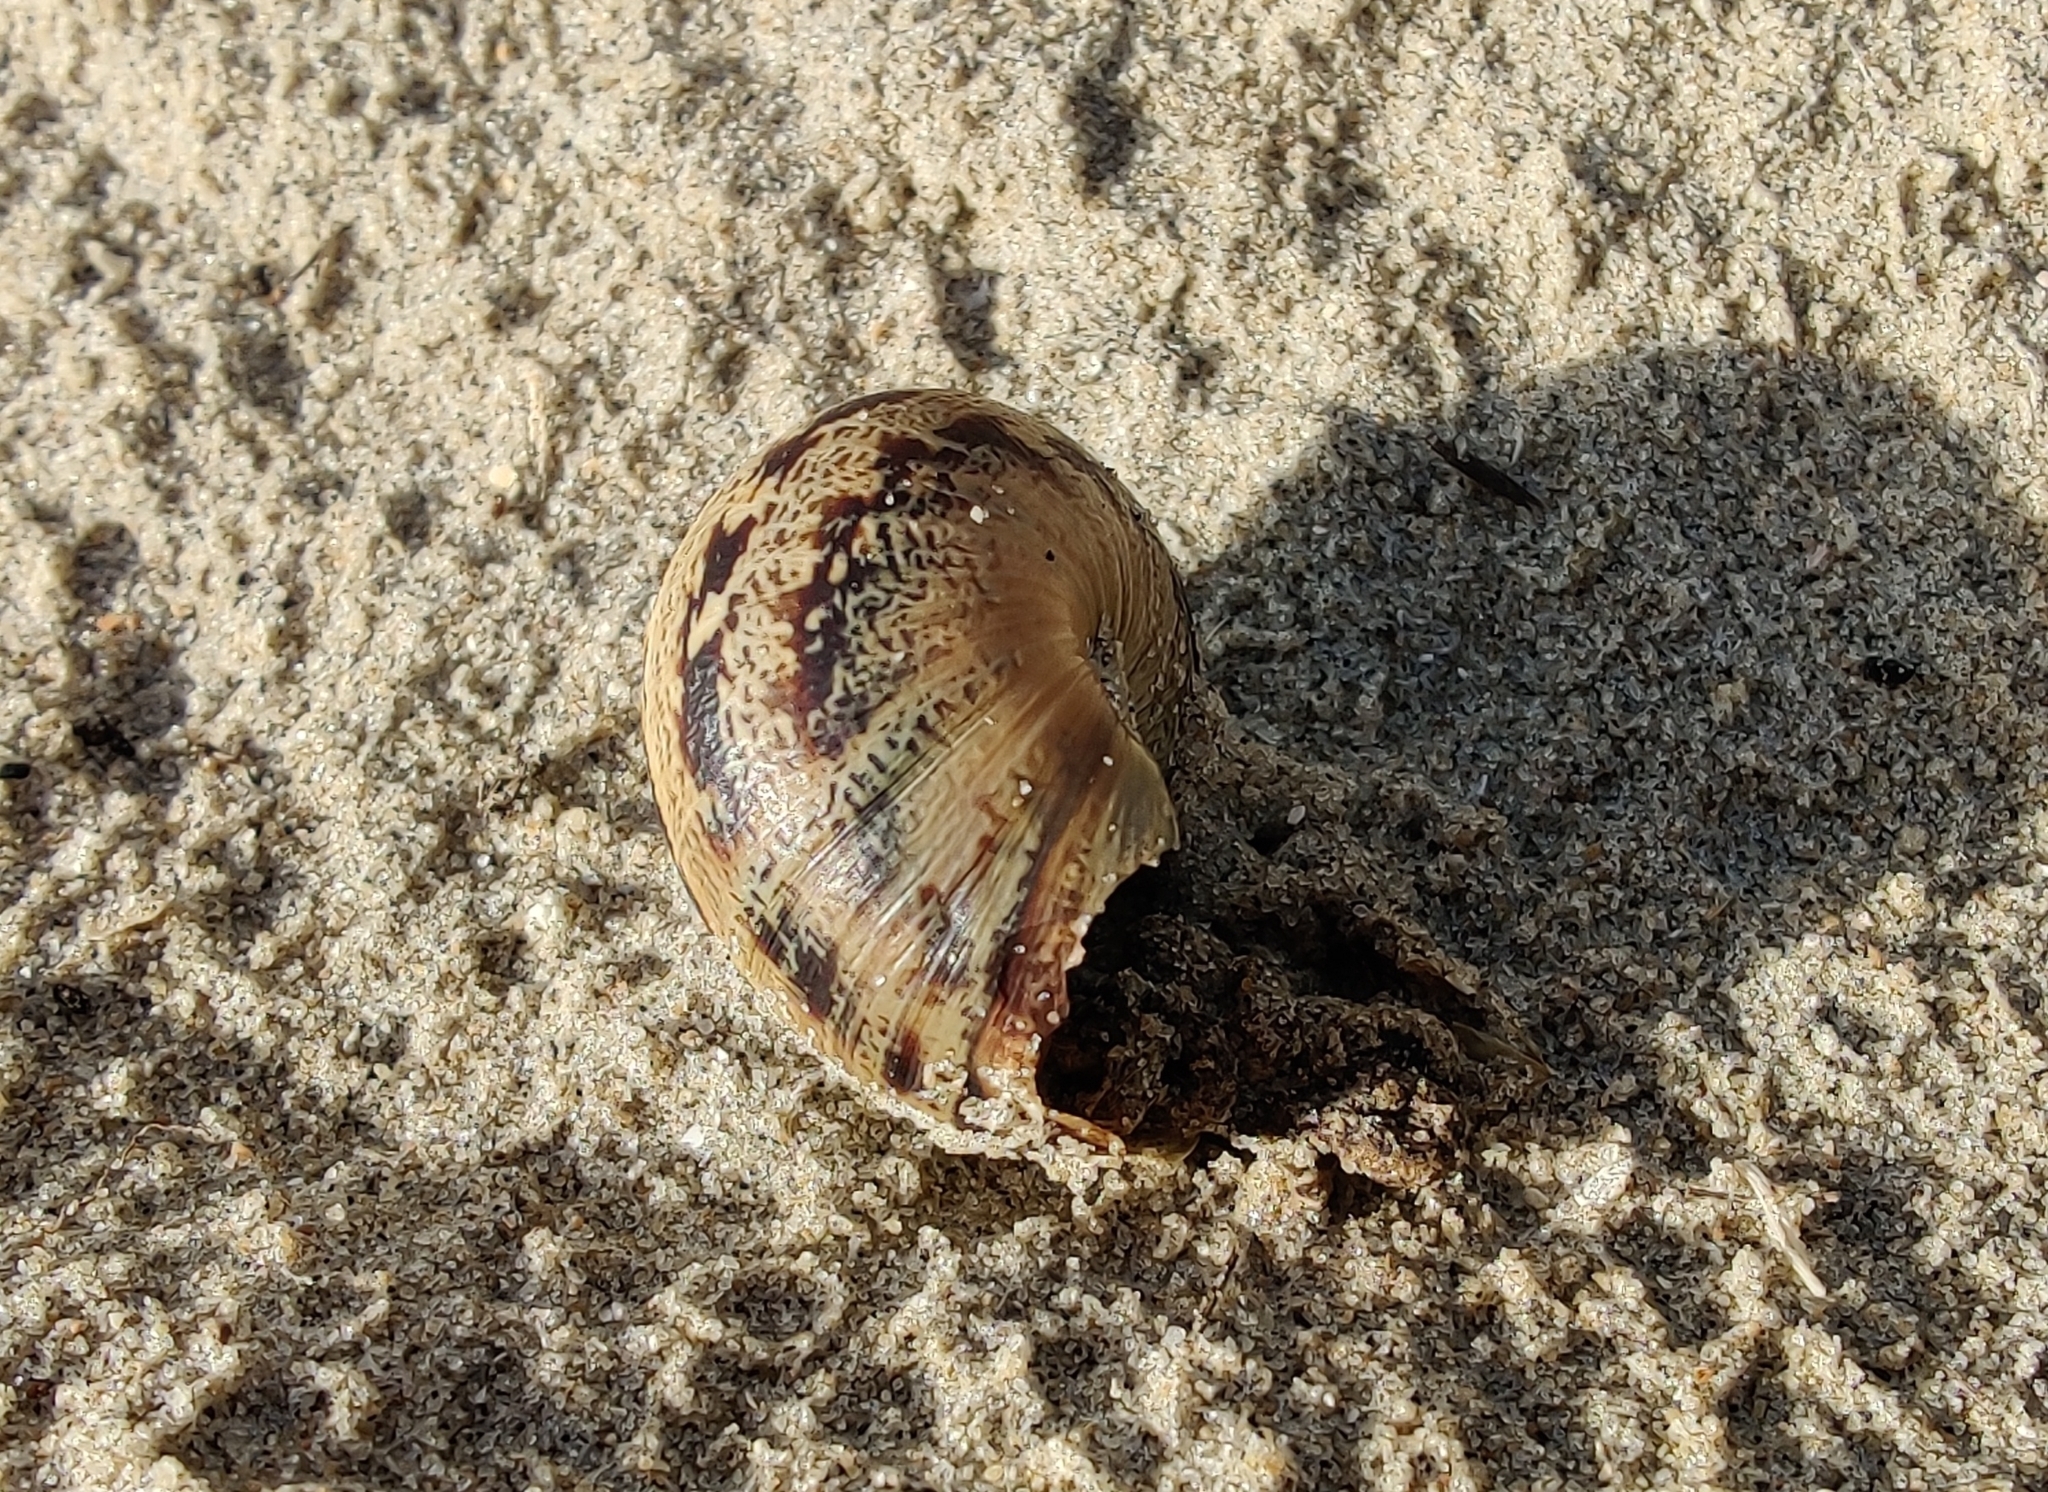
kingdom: Animalia
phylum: Mollusca
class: Gastropoda
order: Stylommatophora
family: Helicidae
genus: Cornu
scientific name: Cornu aspersum
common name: Brown garden snail
